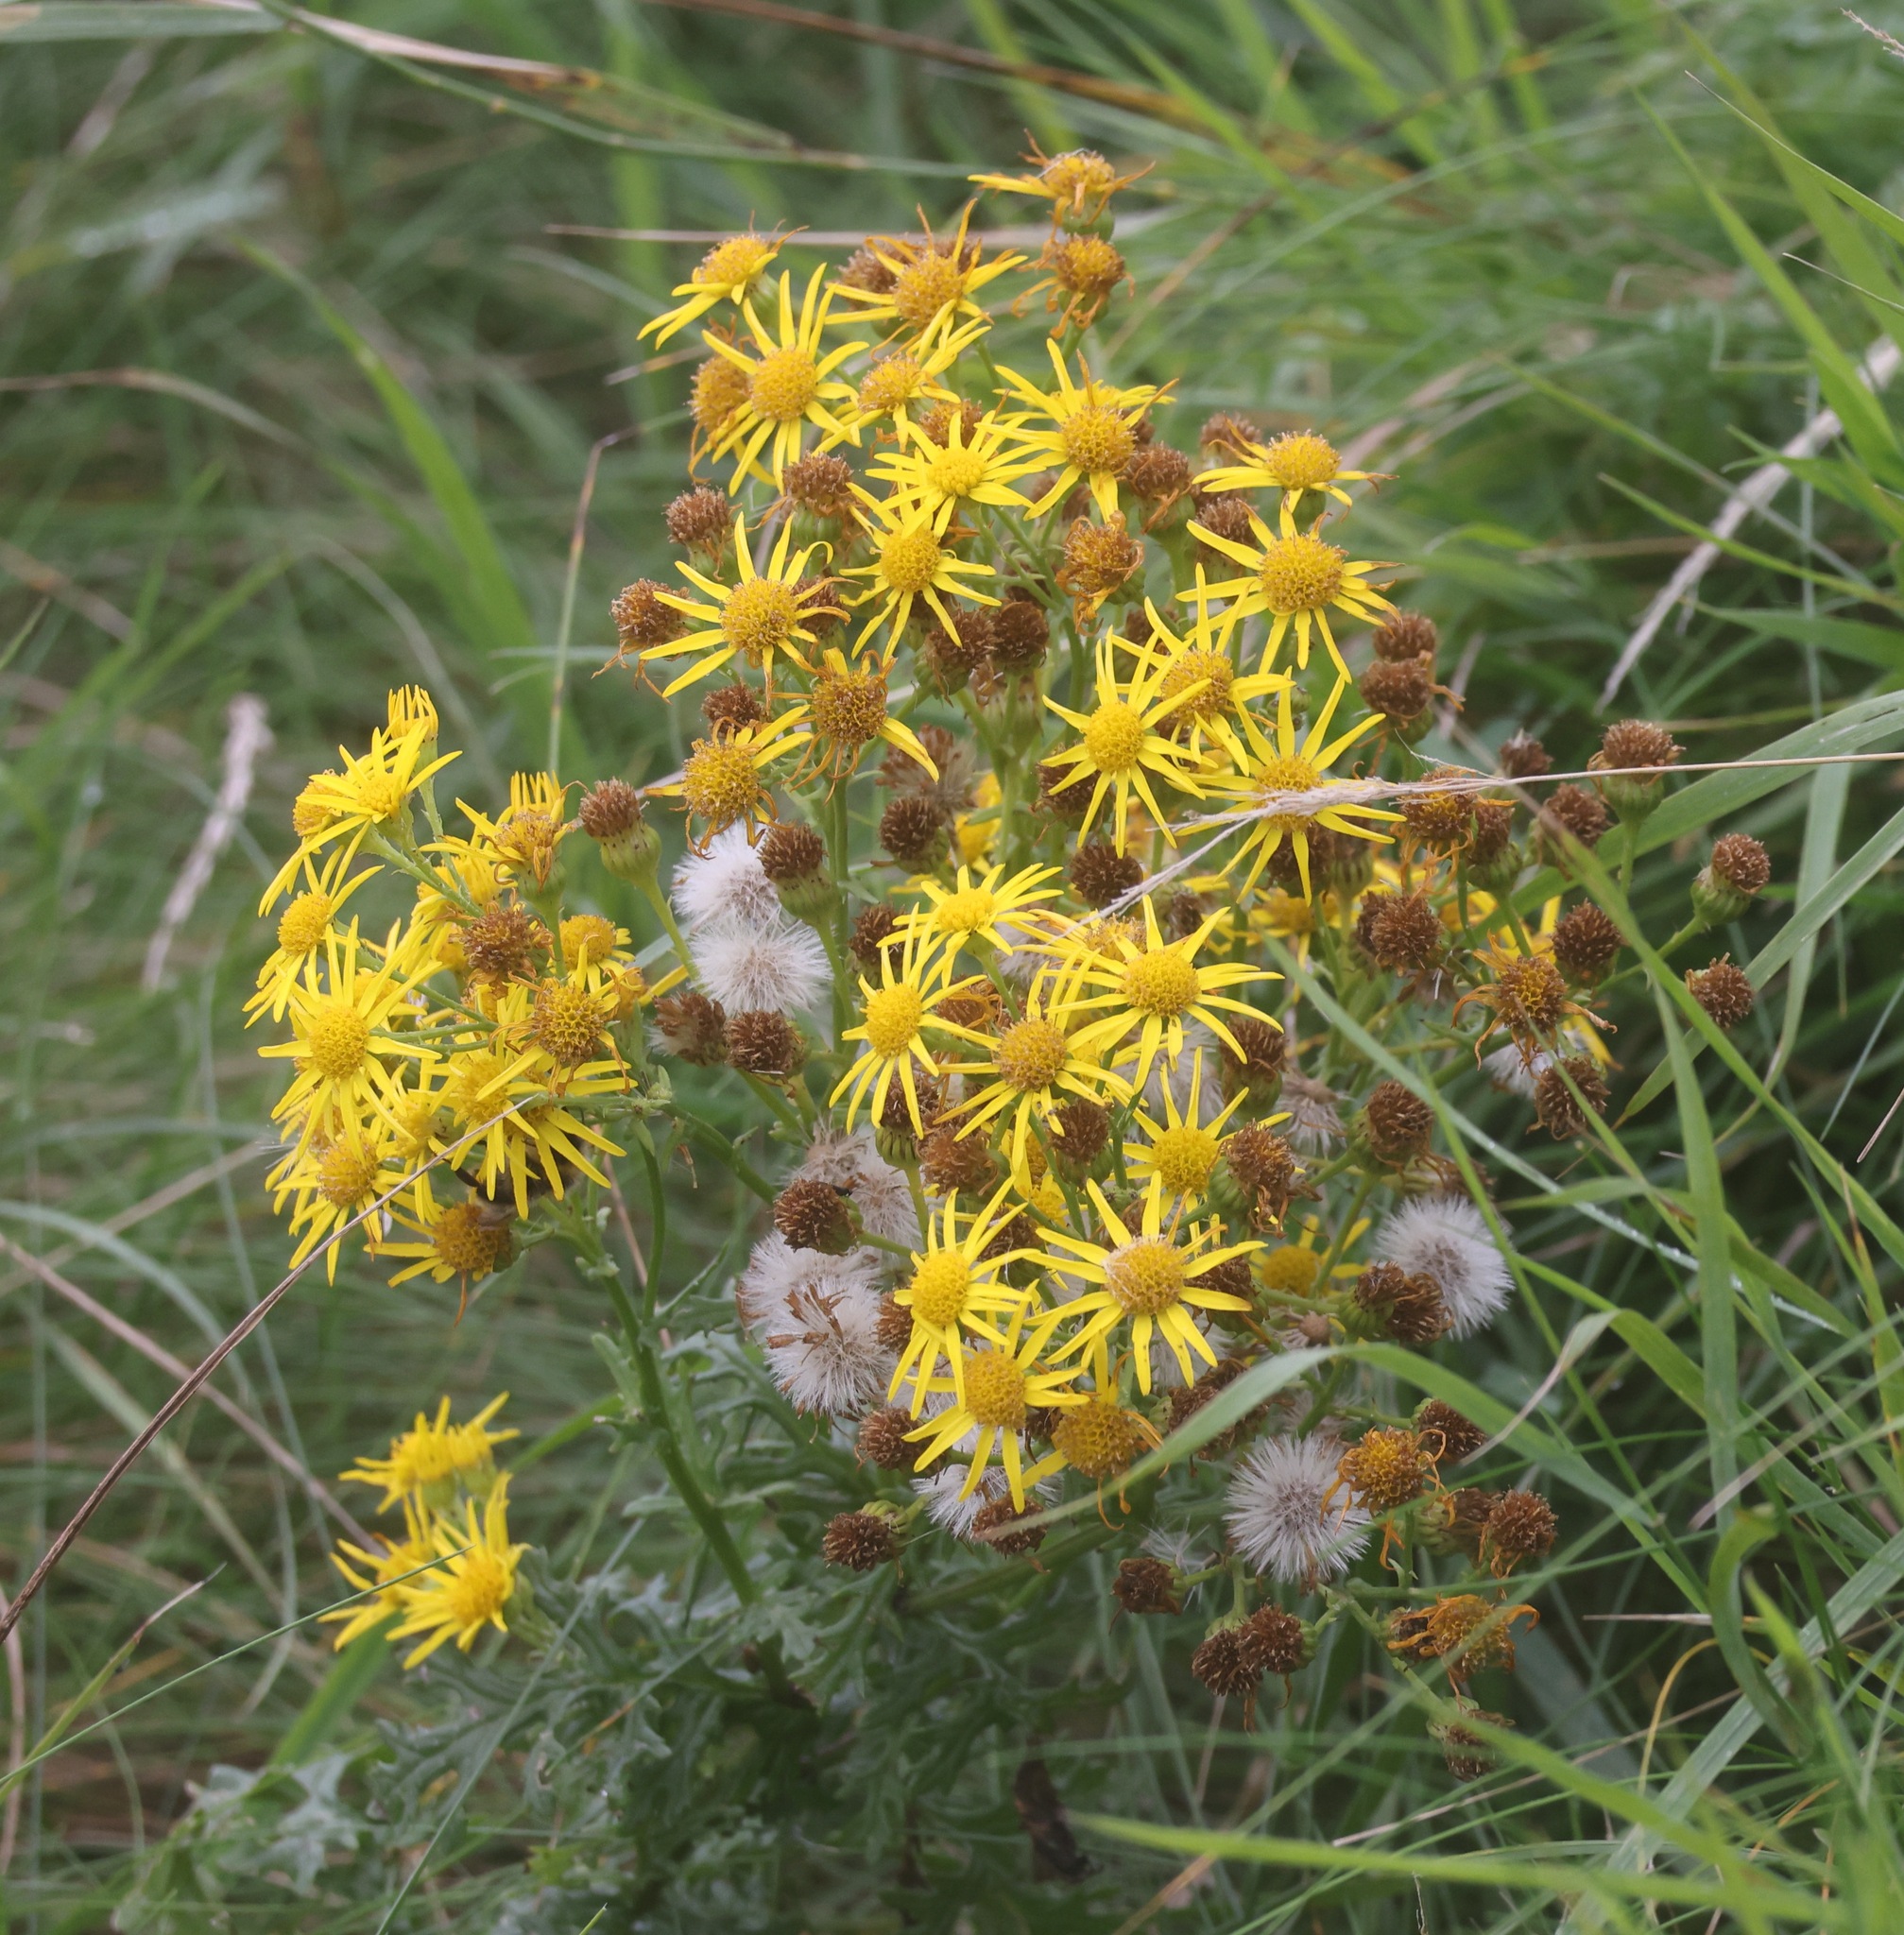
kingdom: Plantae
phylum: Tracheophyta
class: Magnoliopsida
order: Asterales
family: Asteraceae
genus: Jacobaea
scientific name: Jacobaea vulgaris
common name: Stinking willie
